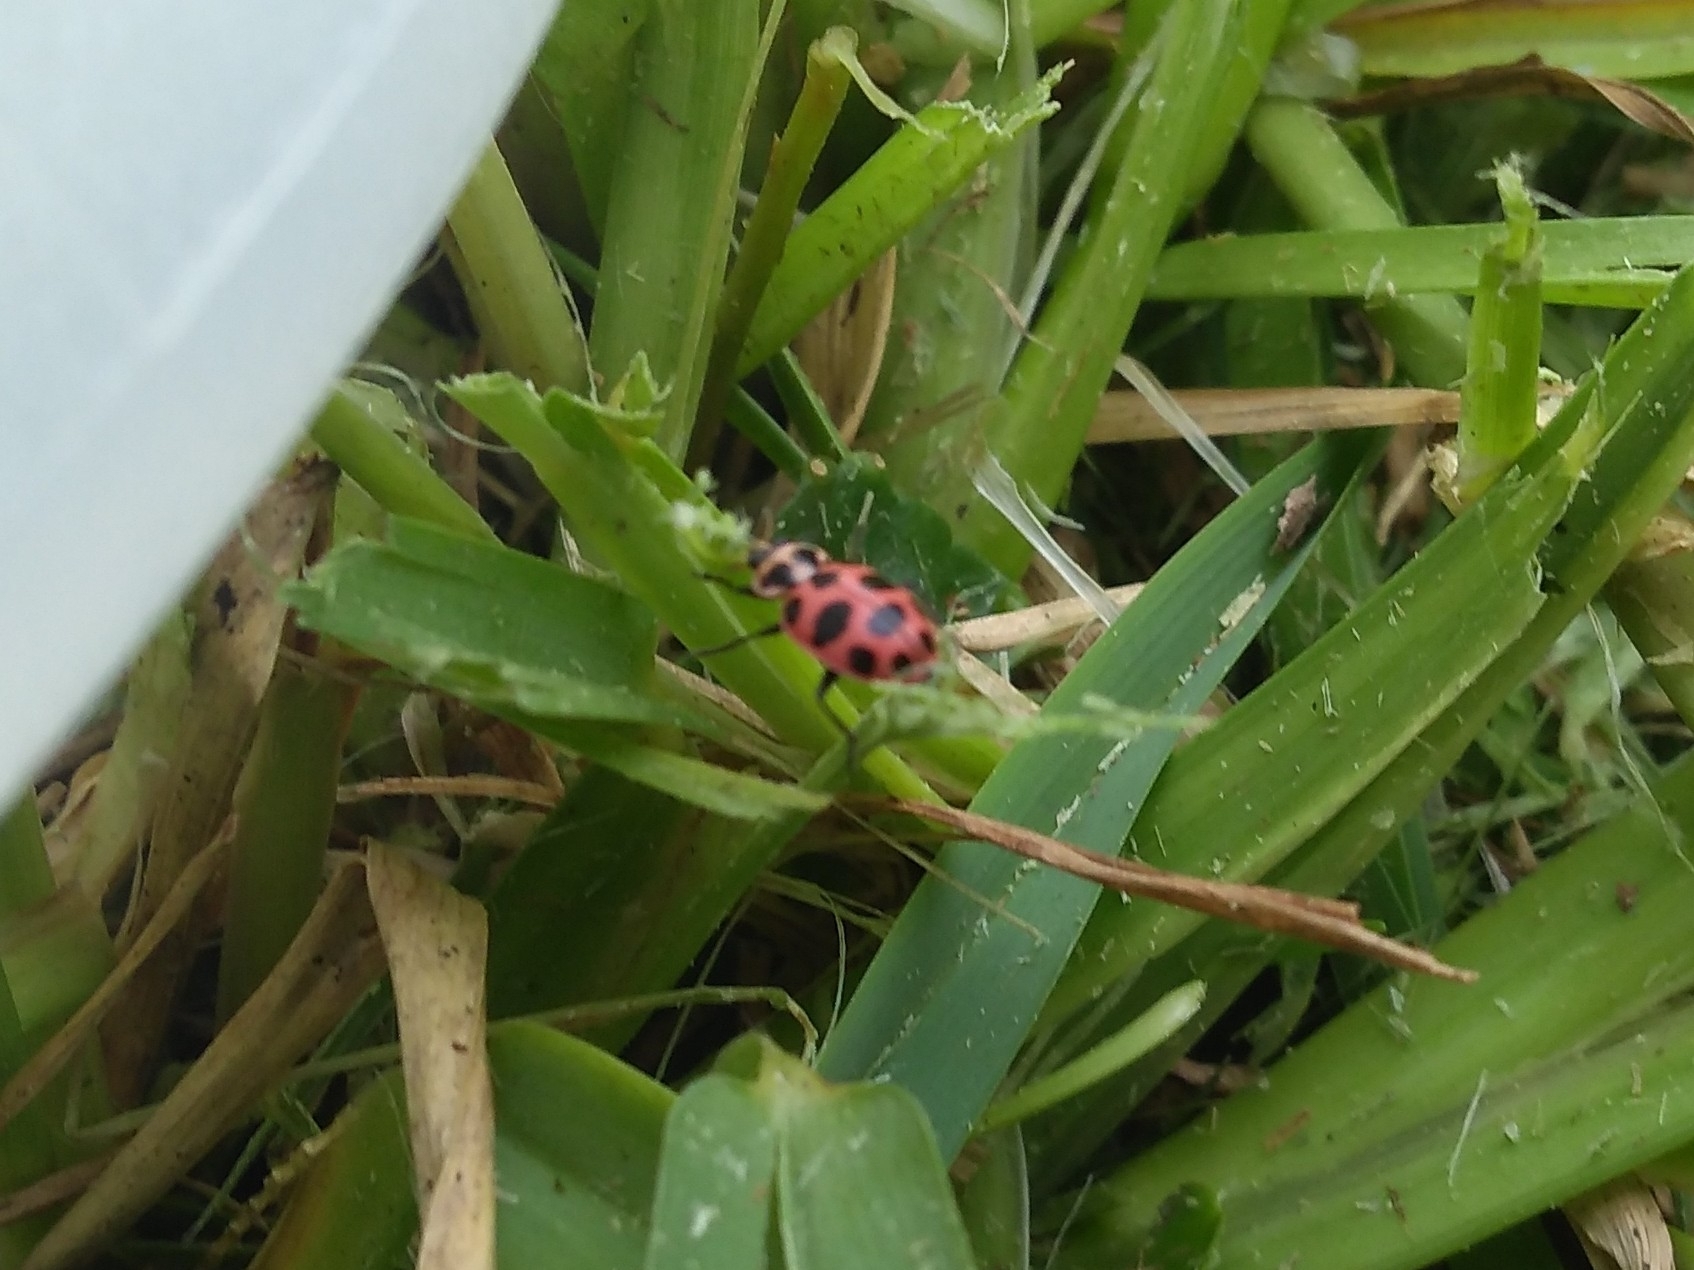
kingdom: Animalia
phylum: Arthropoda
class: Insecta
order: Coleoptera
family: Coccinellidae
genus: Coleomegilla
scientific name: Coleomegilla maculata
